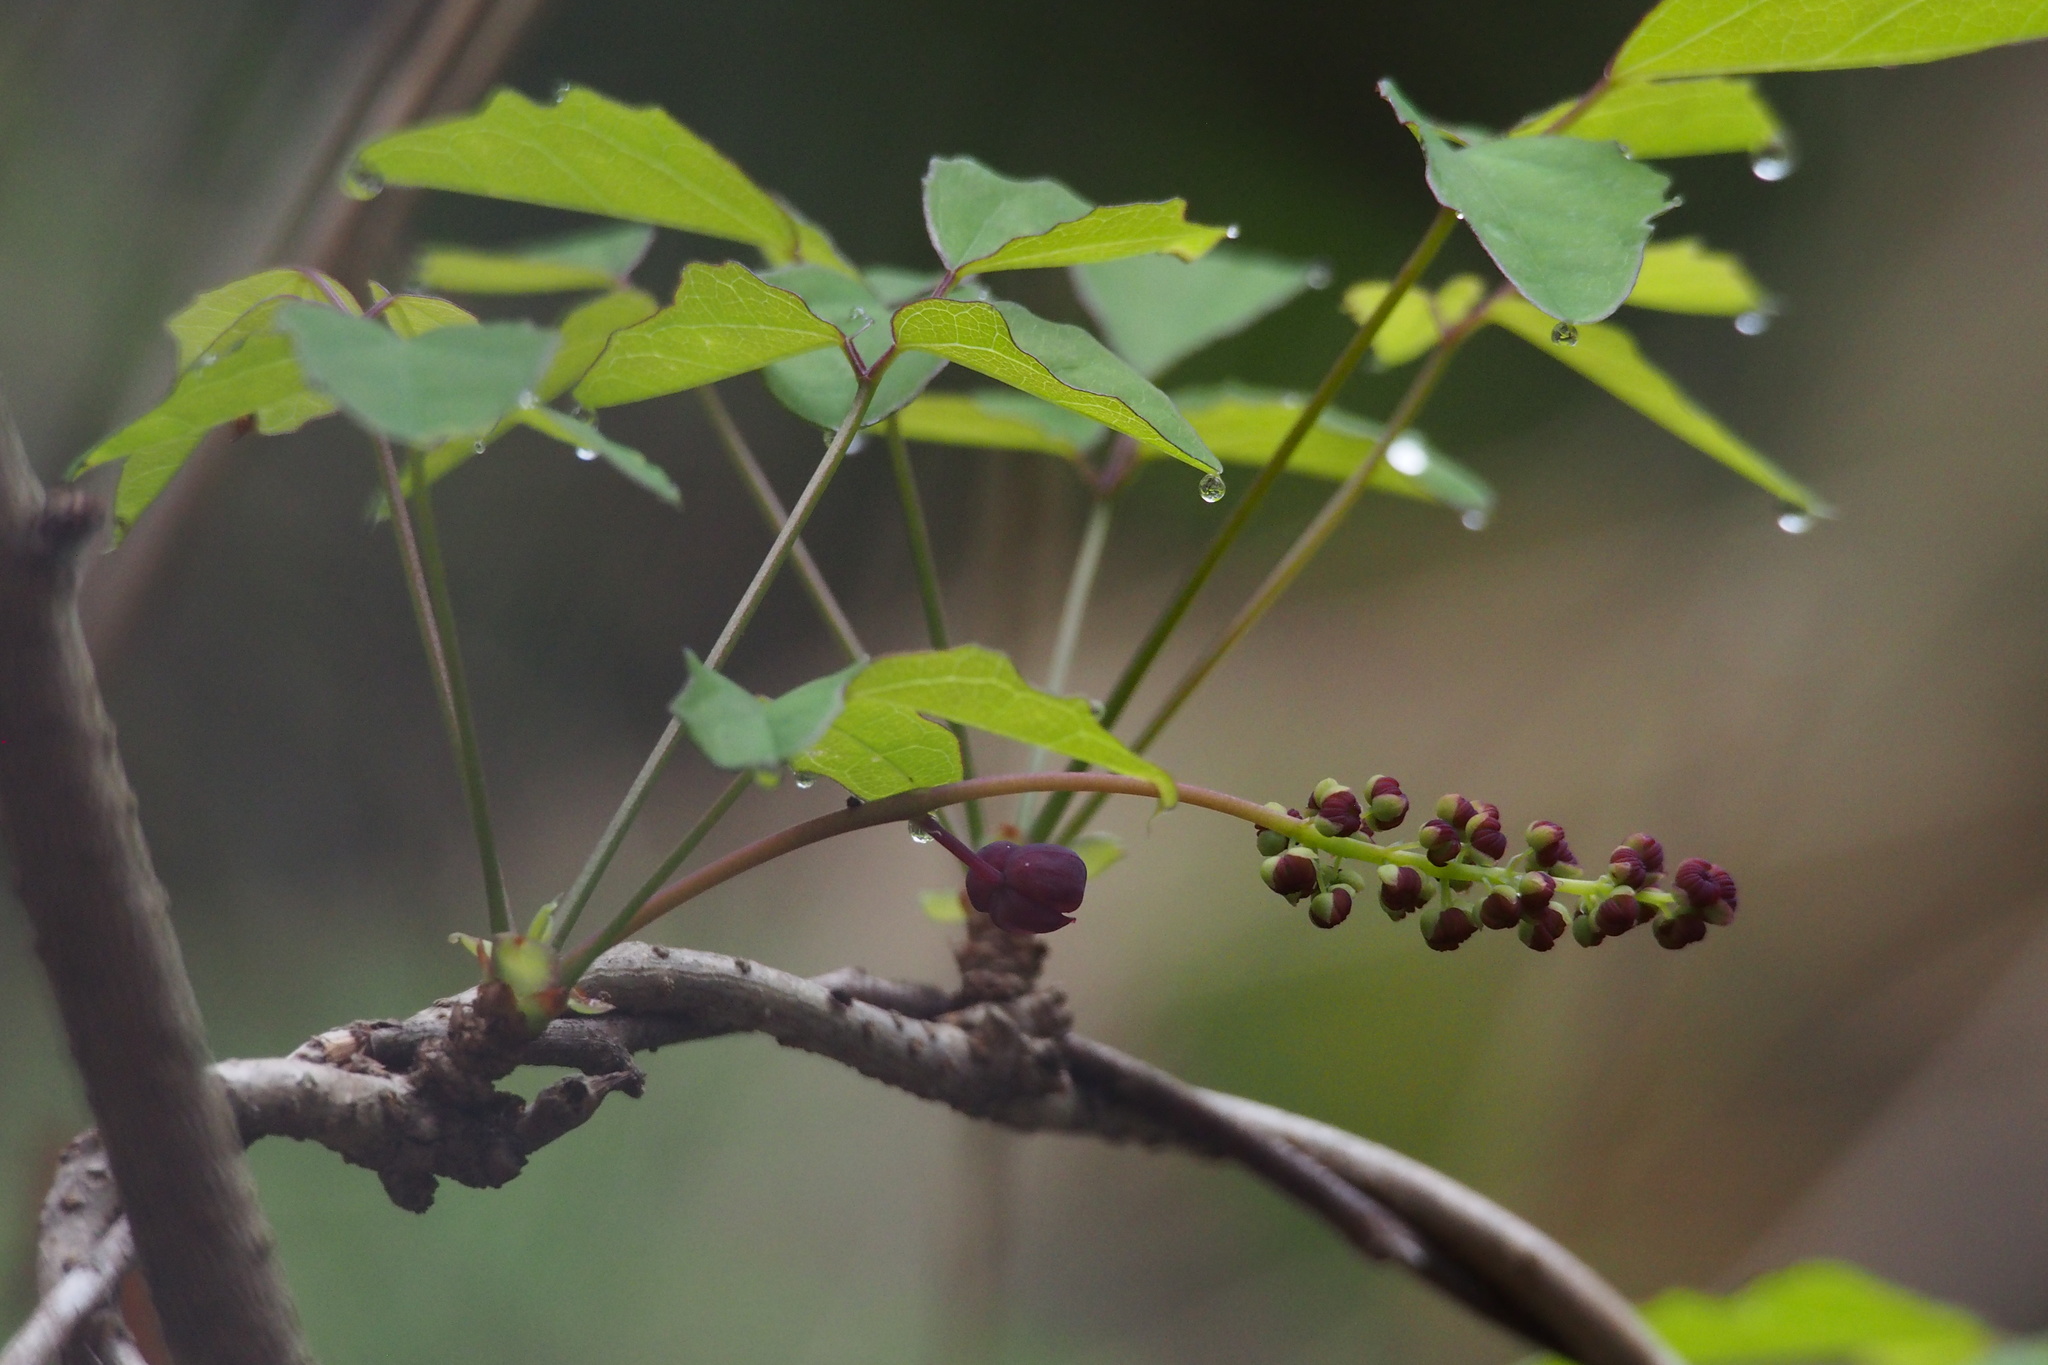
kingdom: Plantae
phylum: Tracheophyta
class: Magnoliopsida
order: Ranunculales
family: Lardizabalaceae
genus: Akebia
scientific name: Akebia trifoliata
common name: Chocolate-vine
